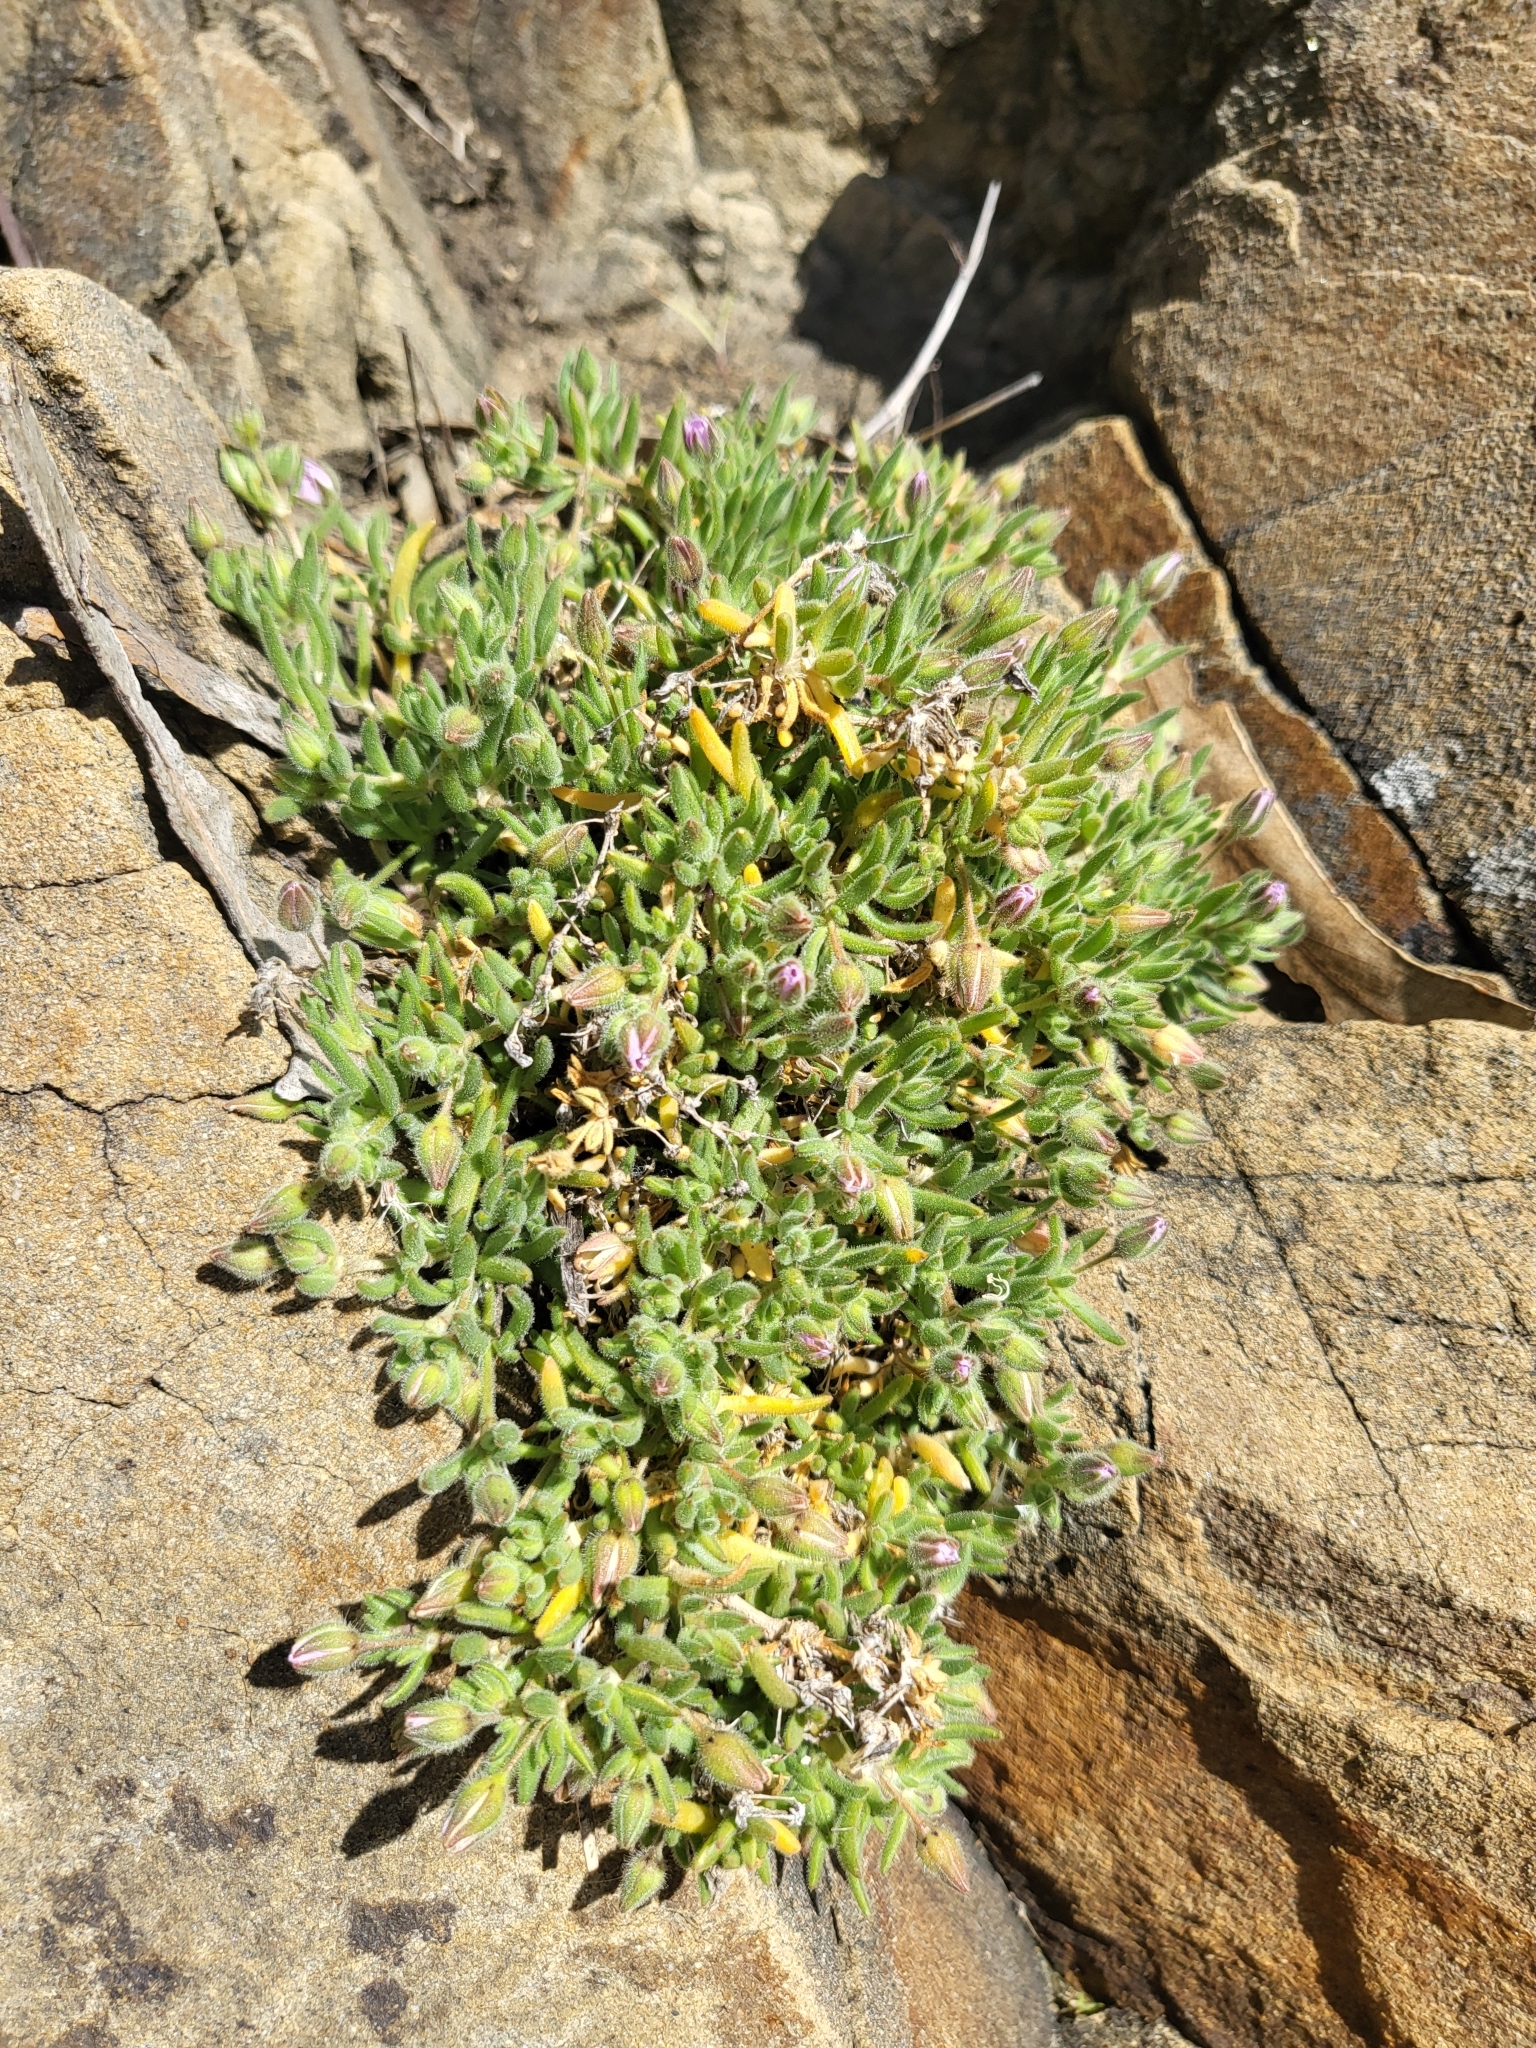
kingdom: Plantae
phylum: Tracheophyta
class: Magnoliopsida
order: Caryophyllales
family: Caryophyllaceae
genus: Spergularia
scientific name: Spergularia macrotheca
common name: Beach sand-spurrey
